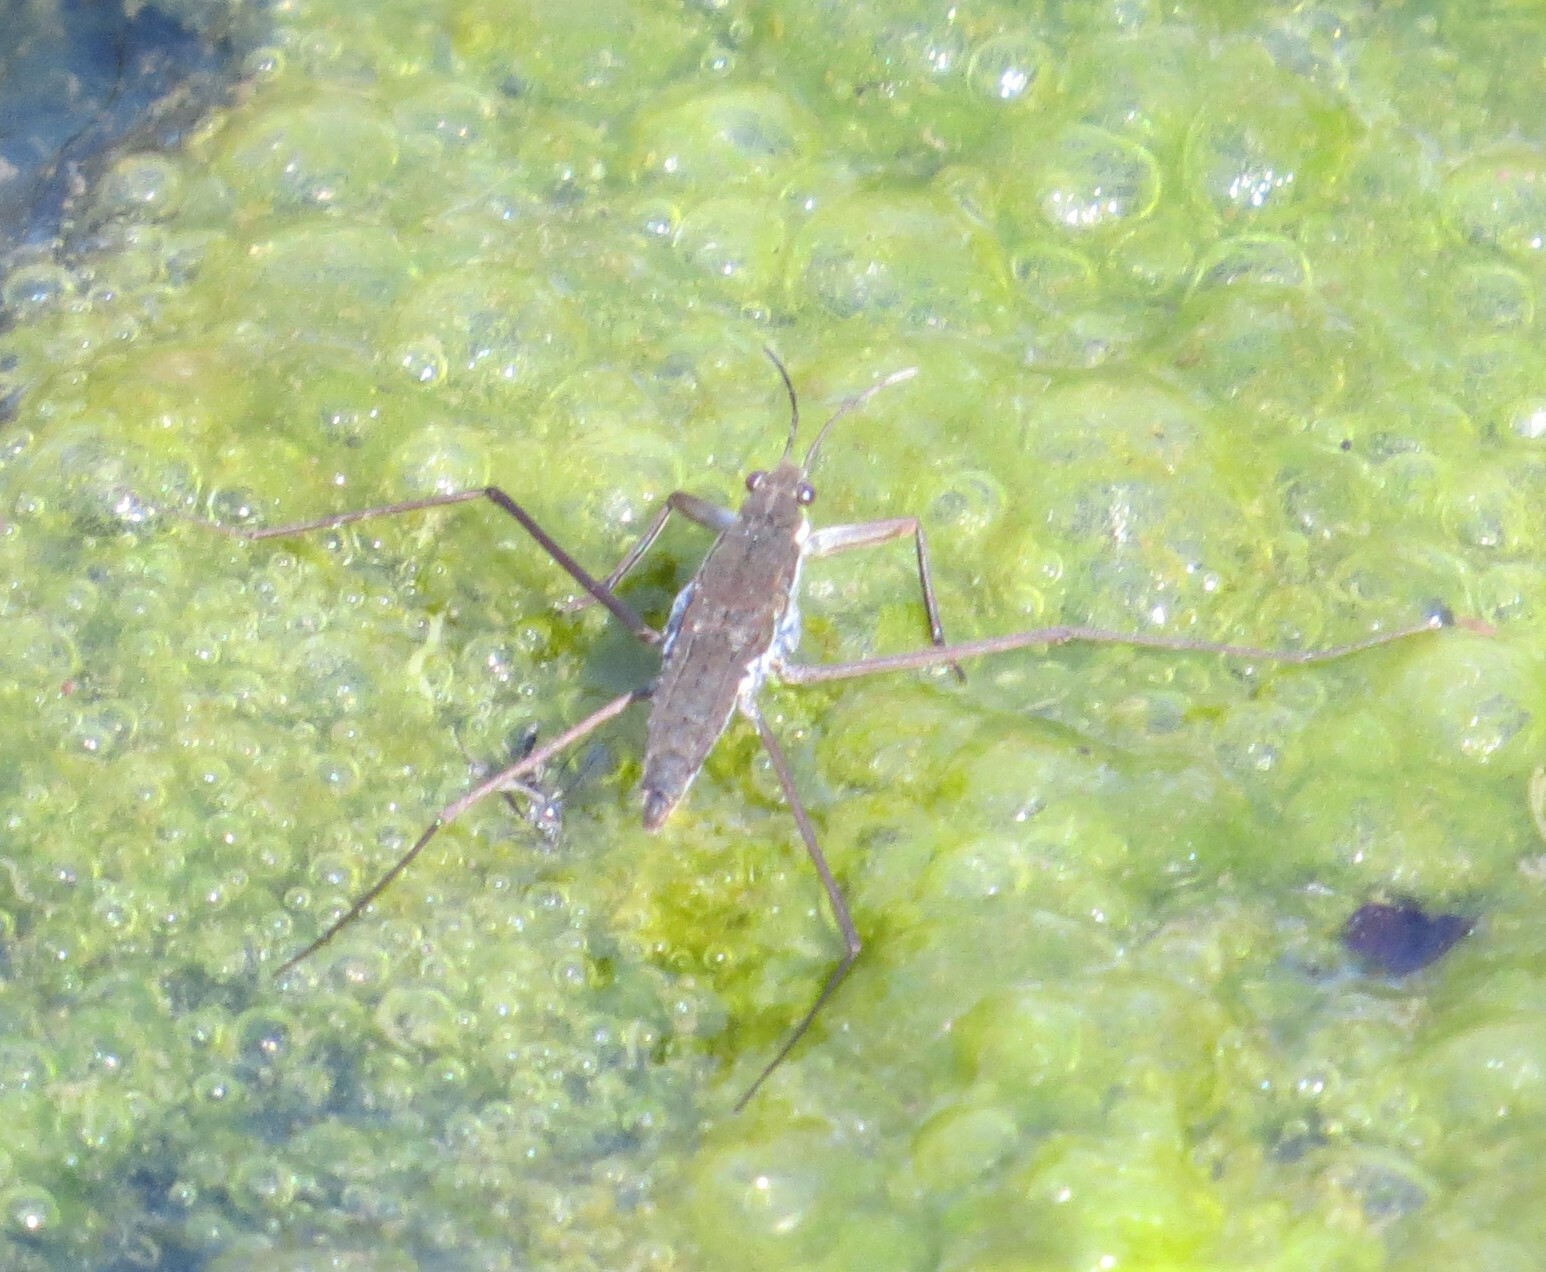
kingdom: Animalia
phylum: Arthropoda
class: Insecta
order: Hemiptera
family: Gerridae
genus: Aquarius
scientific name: Aquarius remigis
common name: Common water strider
